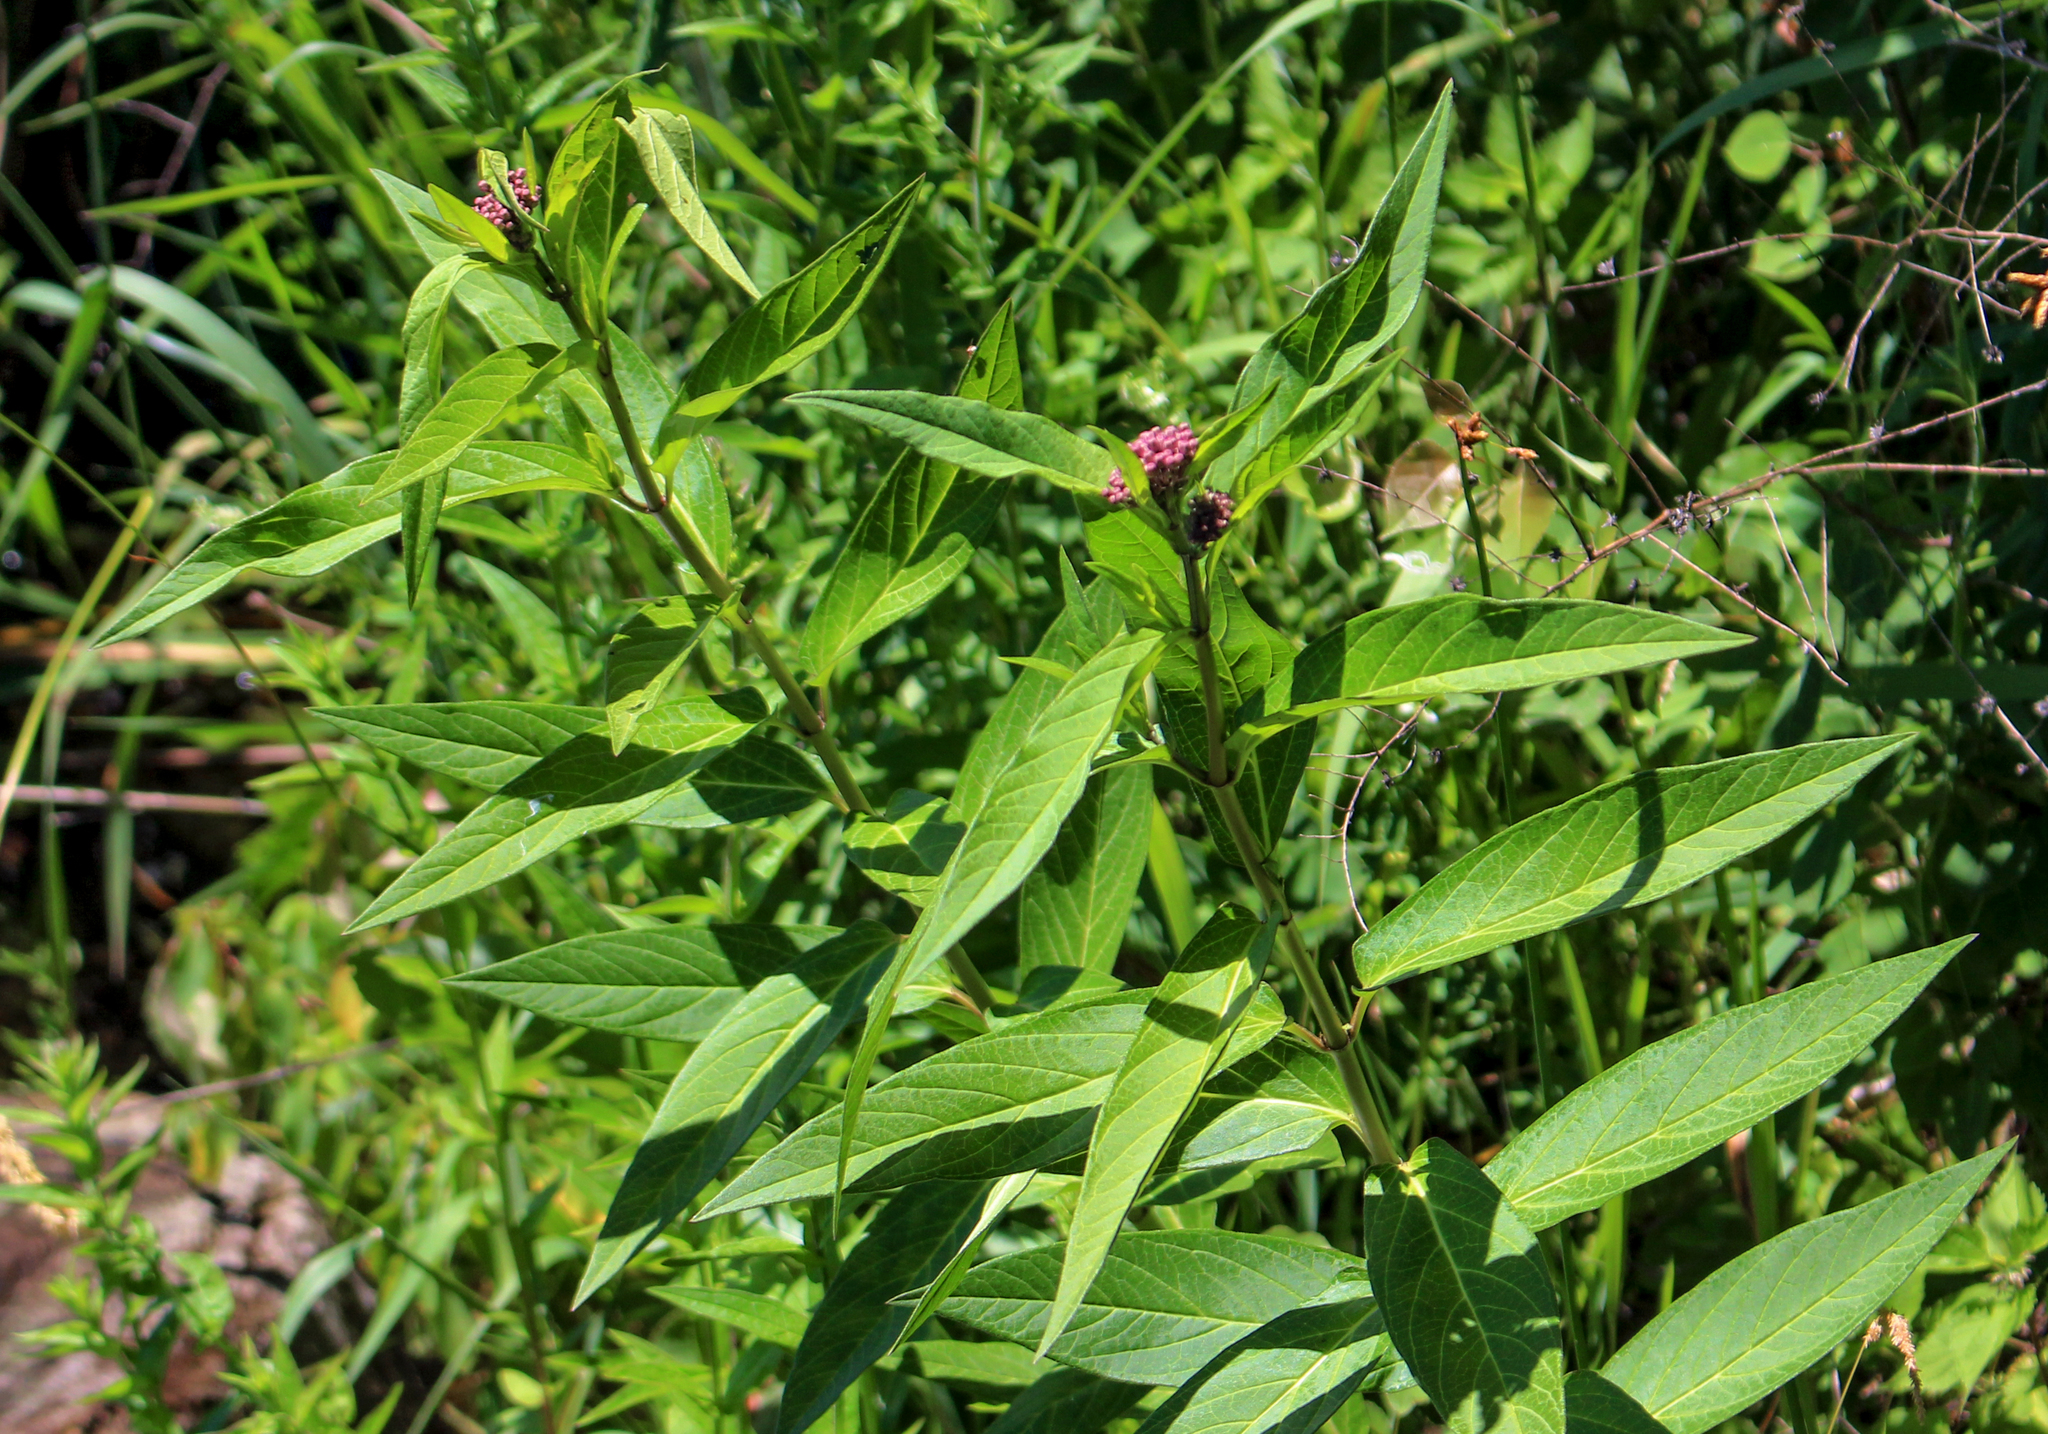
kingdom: Plantae
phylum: Tracheophyta
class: Magnoliopsida
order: Gentianales
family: Apocynaceae
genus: Asclepias
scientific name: Asclepias incarnata
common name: Swamp milkweed
